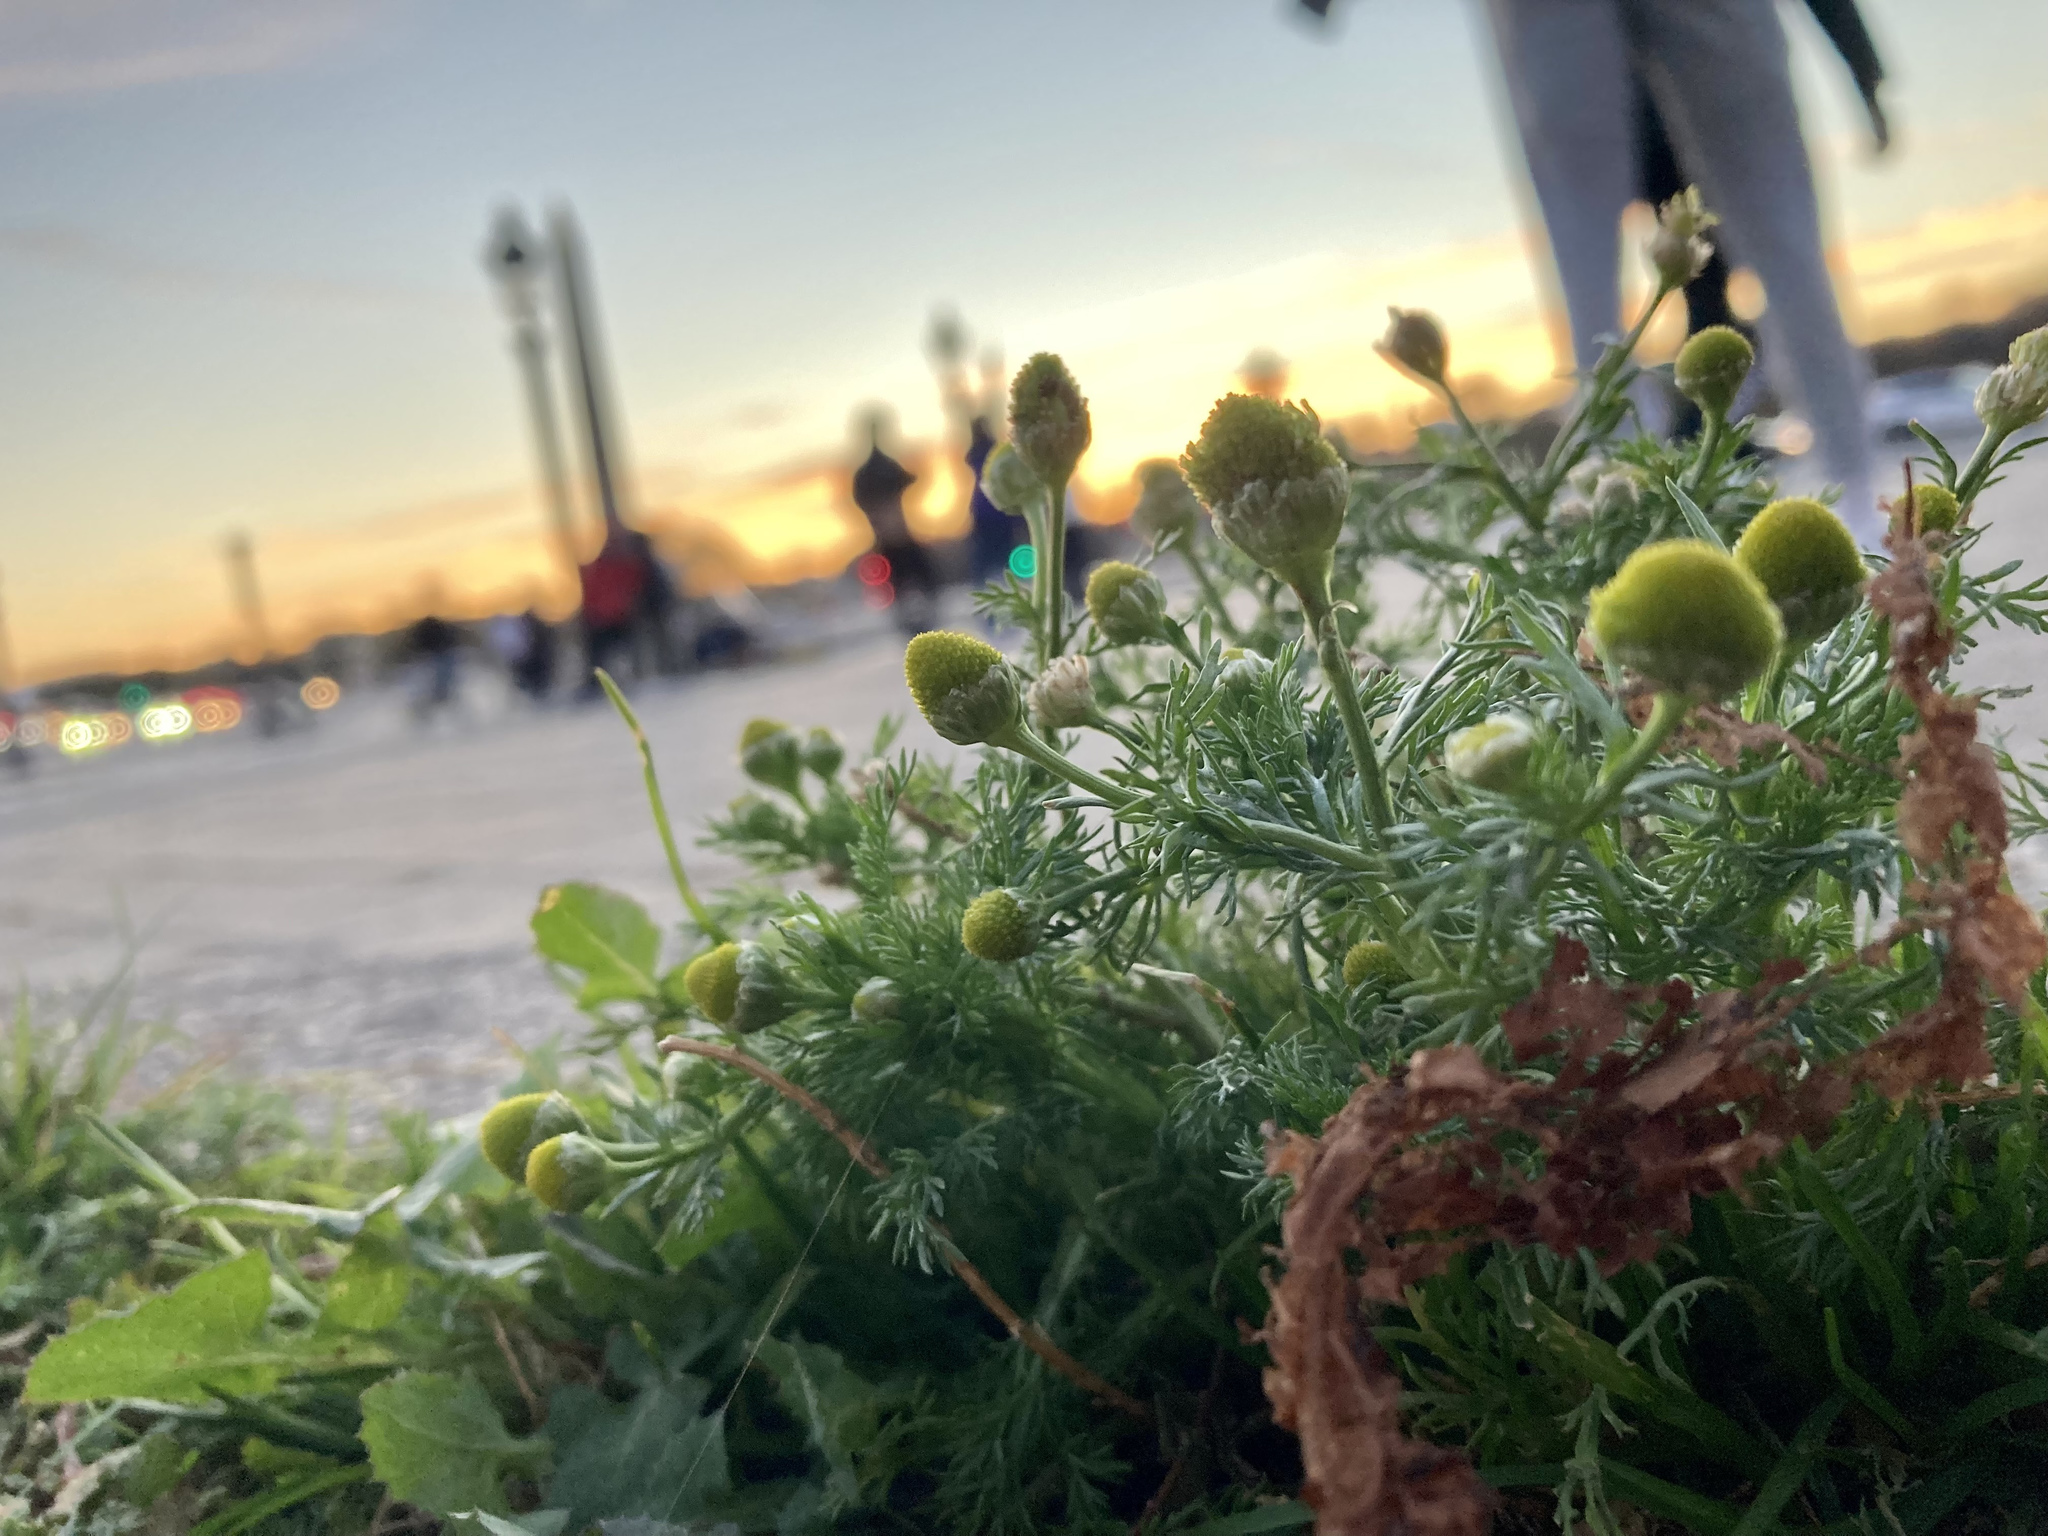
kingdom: Plantae
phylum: Tracheophyta
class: Magnoliopsida
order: Asterales
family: Asteraceae
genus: Matricaria
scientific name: Matricaria discoidea
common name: Disc mayweed
